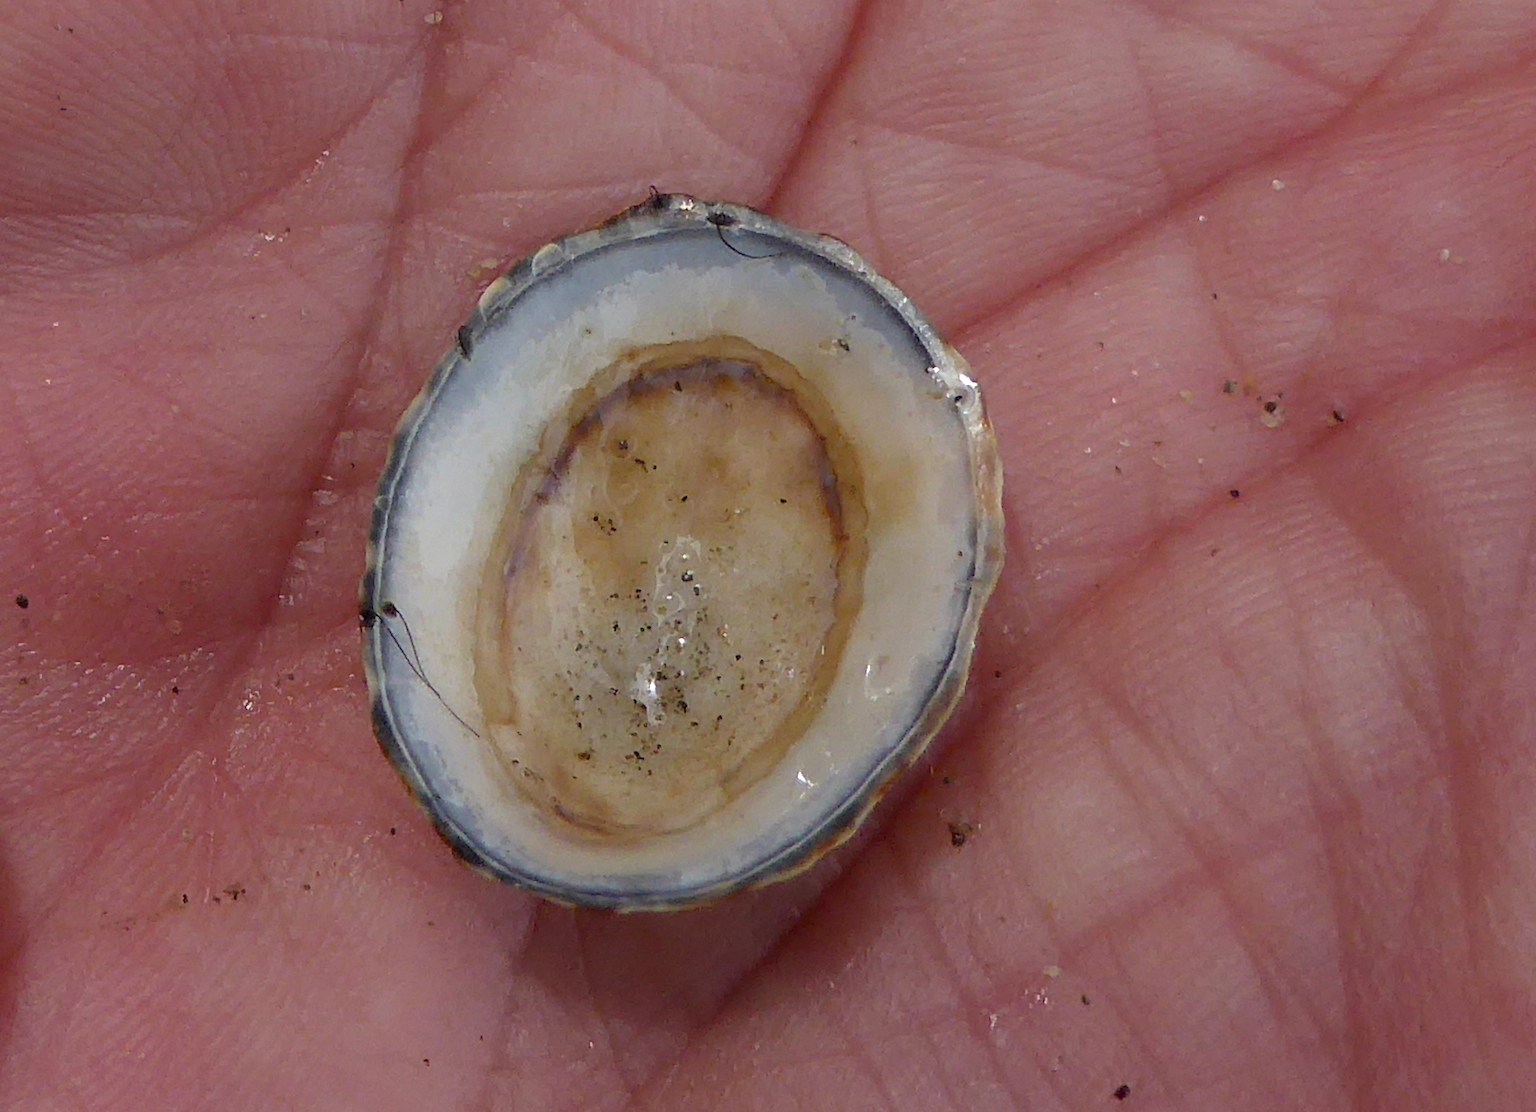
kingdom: Animalia
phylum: Mollusca
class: Gastropoda
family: Lottiidae
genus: Lottia
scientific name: Lottia paradigitalis
